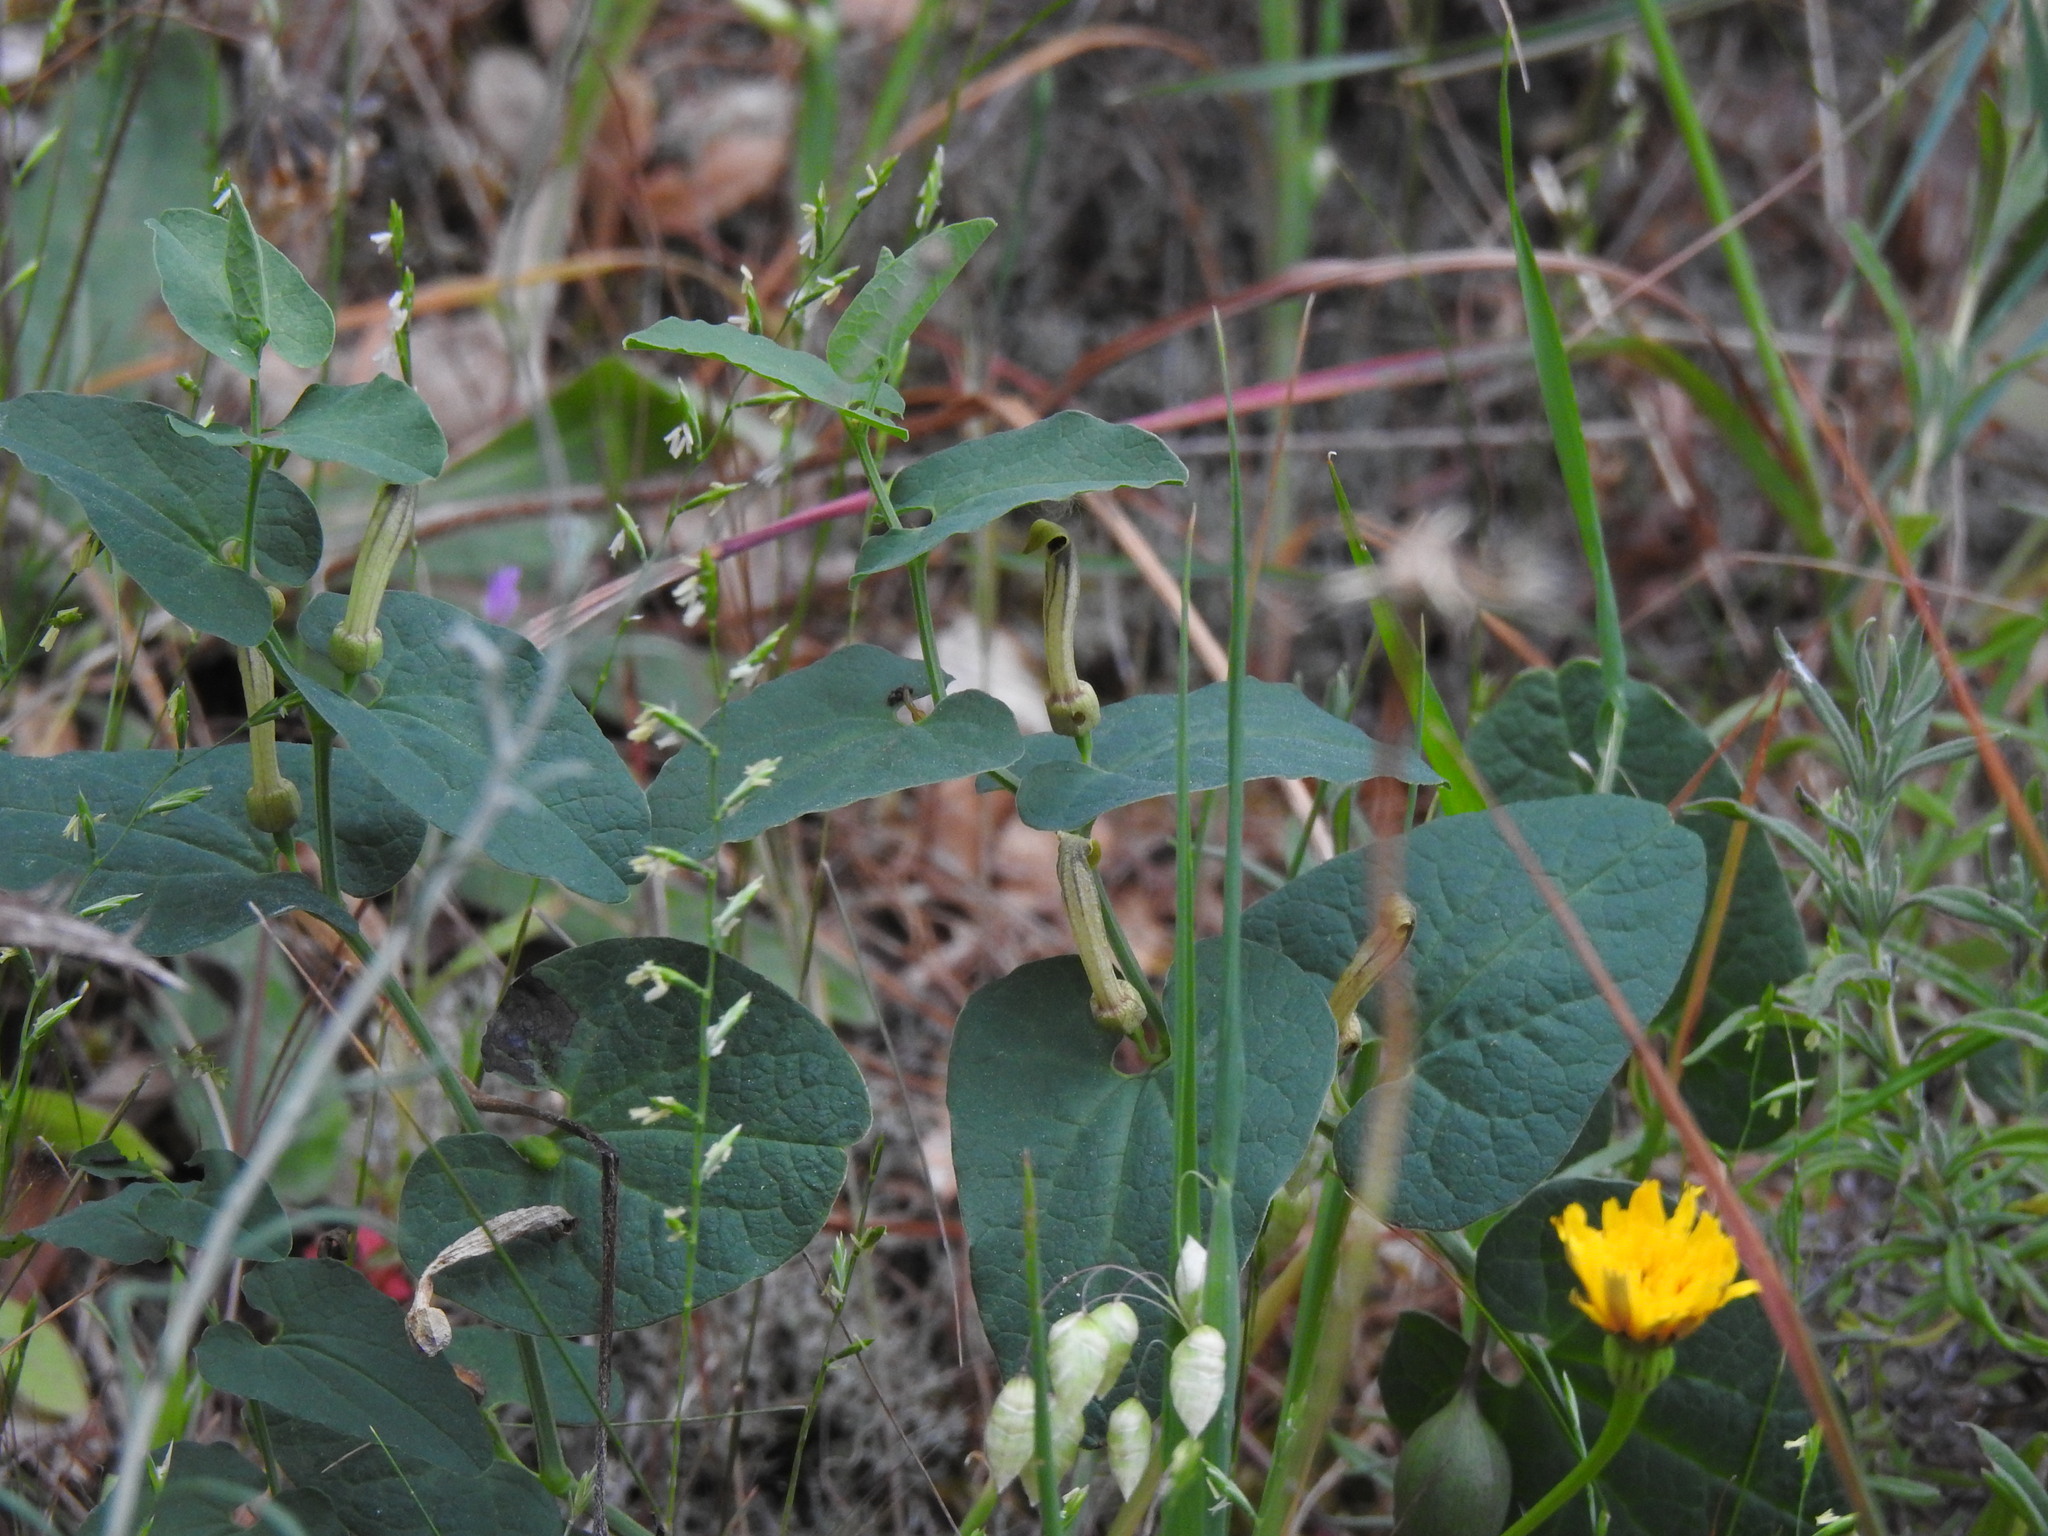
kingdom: Plantae
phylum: Tracheophyta
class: Magnoliopsida
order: Piperales
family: Aristolochiaceae
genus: Aristolochia
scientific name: Aristolochia paucinervis
